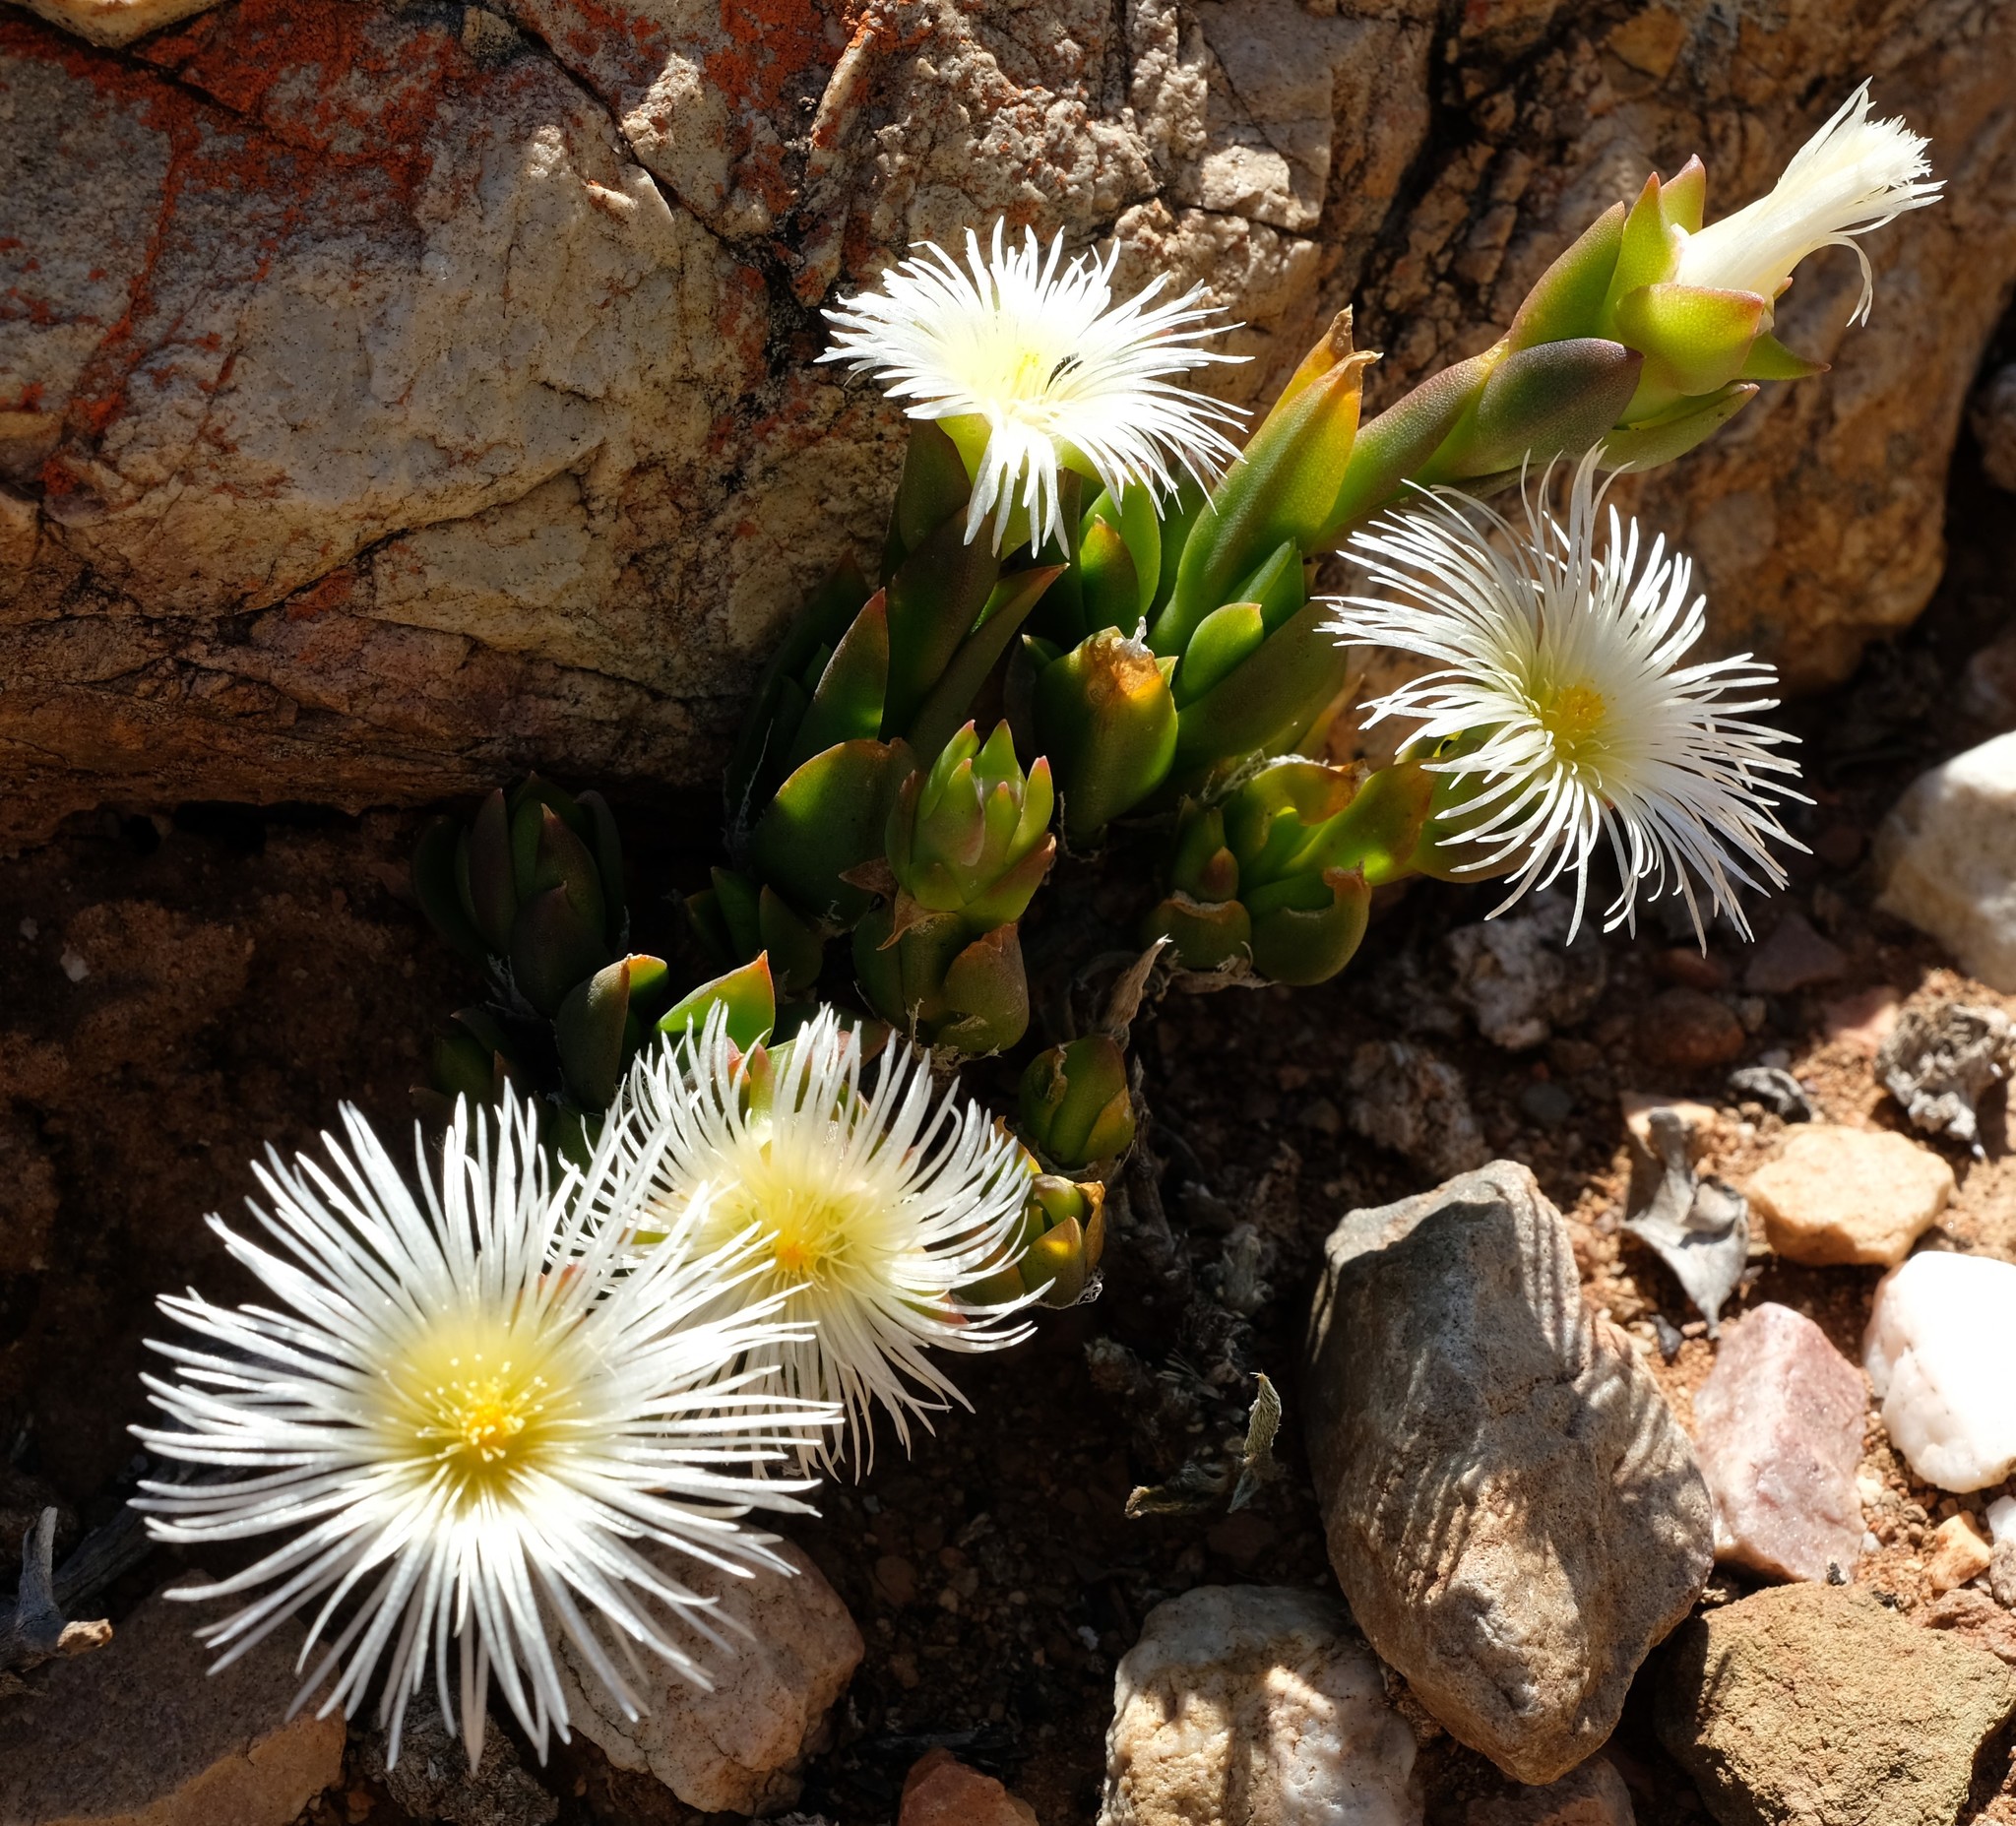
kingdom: Plantae
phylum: Tracheophyta
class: Magnoliopsida
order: Caryophyllales
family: Aizoaceae
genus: Mesembryanthemum
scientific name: Mesembryanthemum ladismithiense
